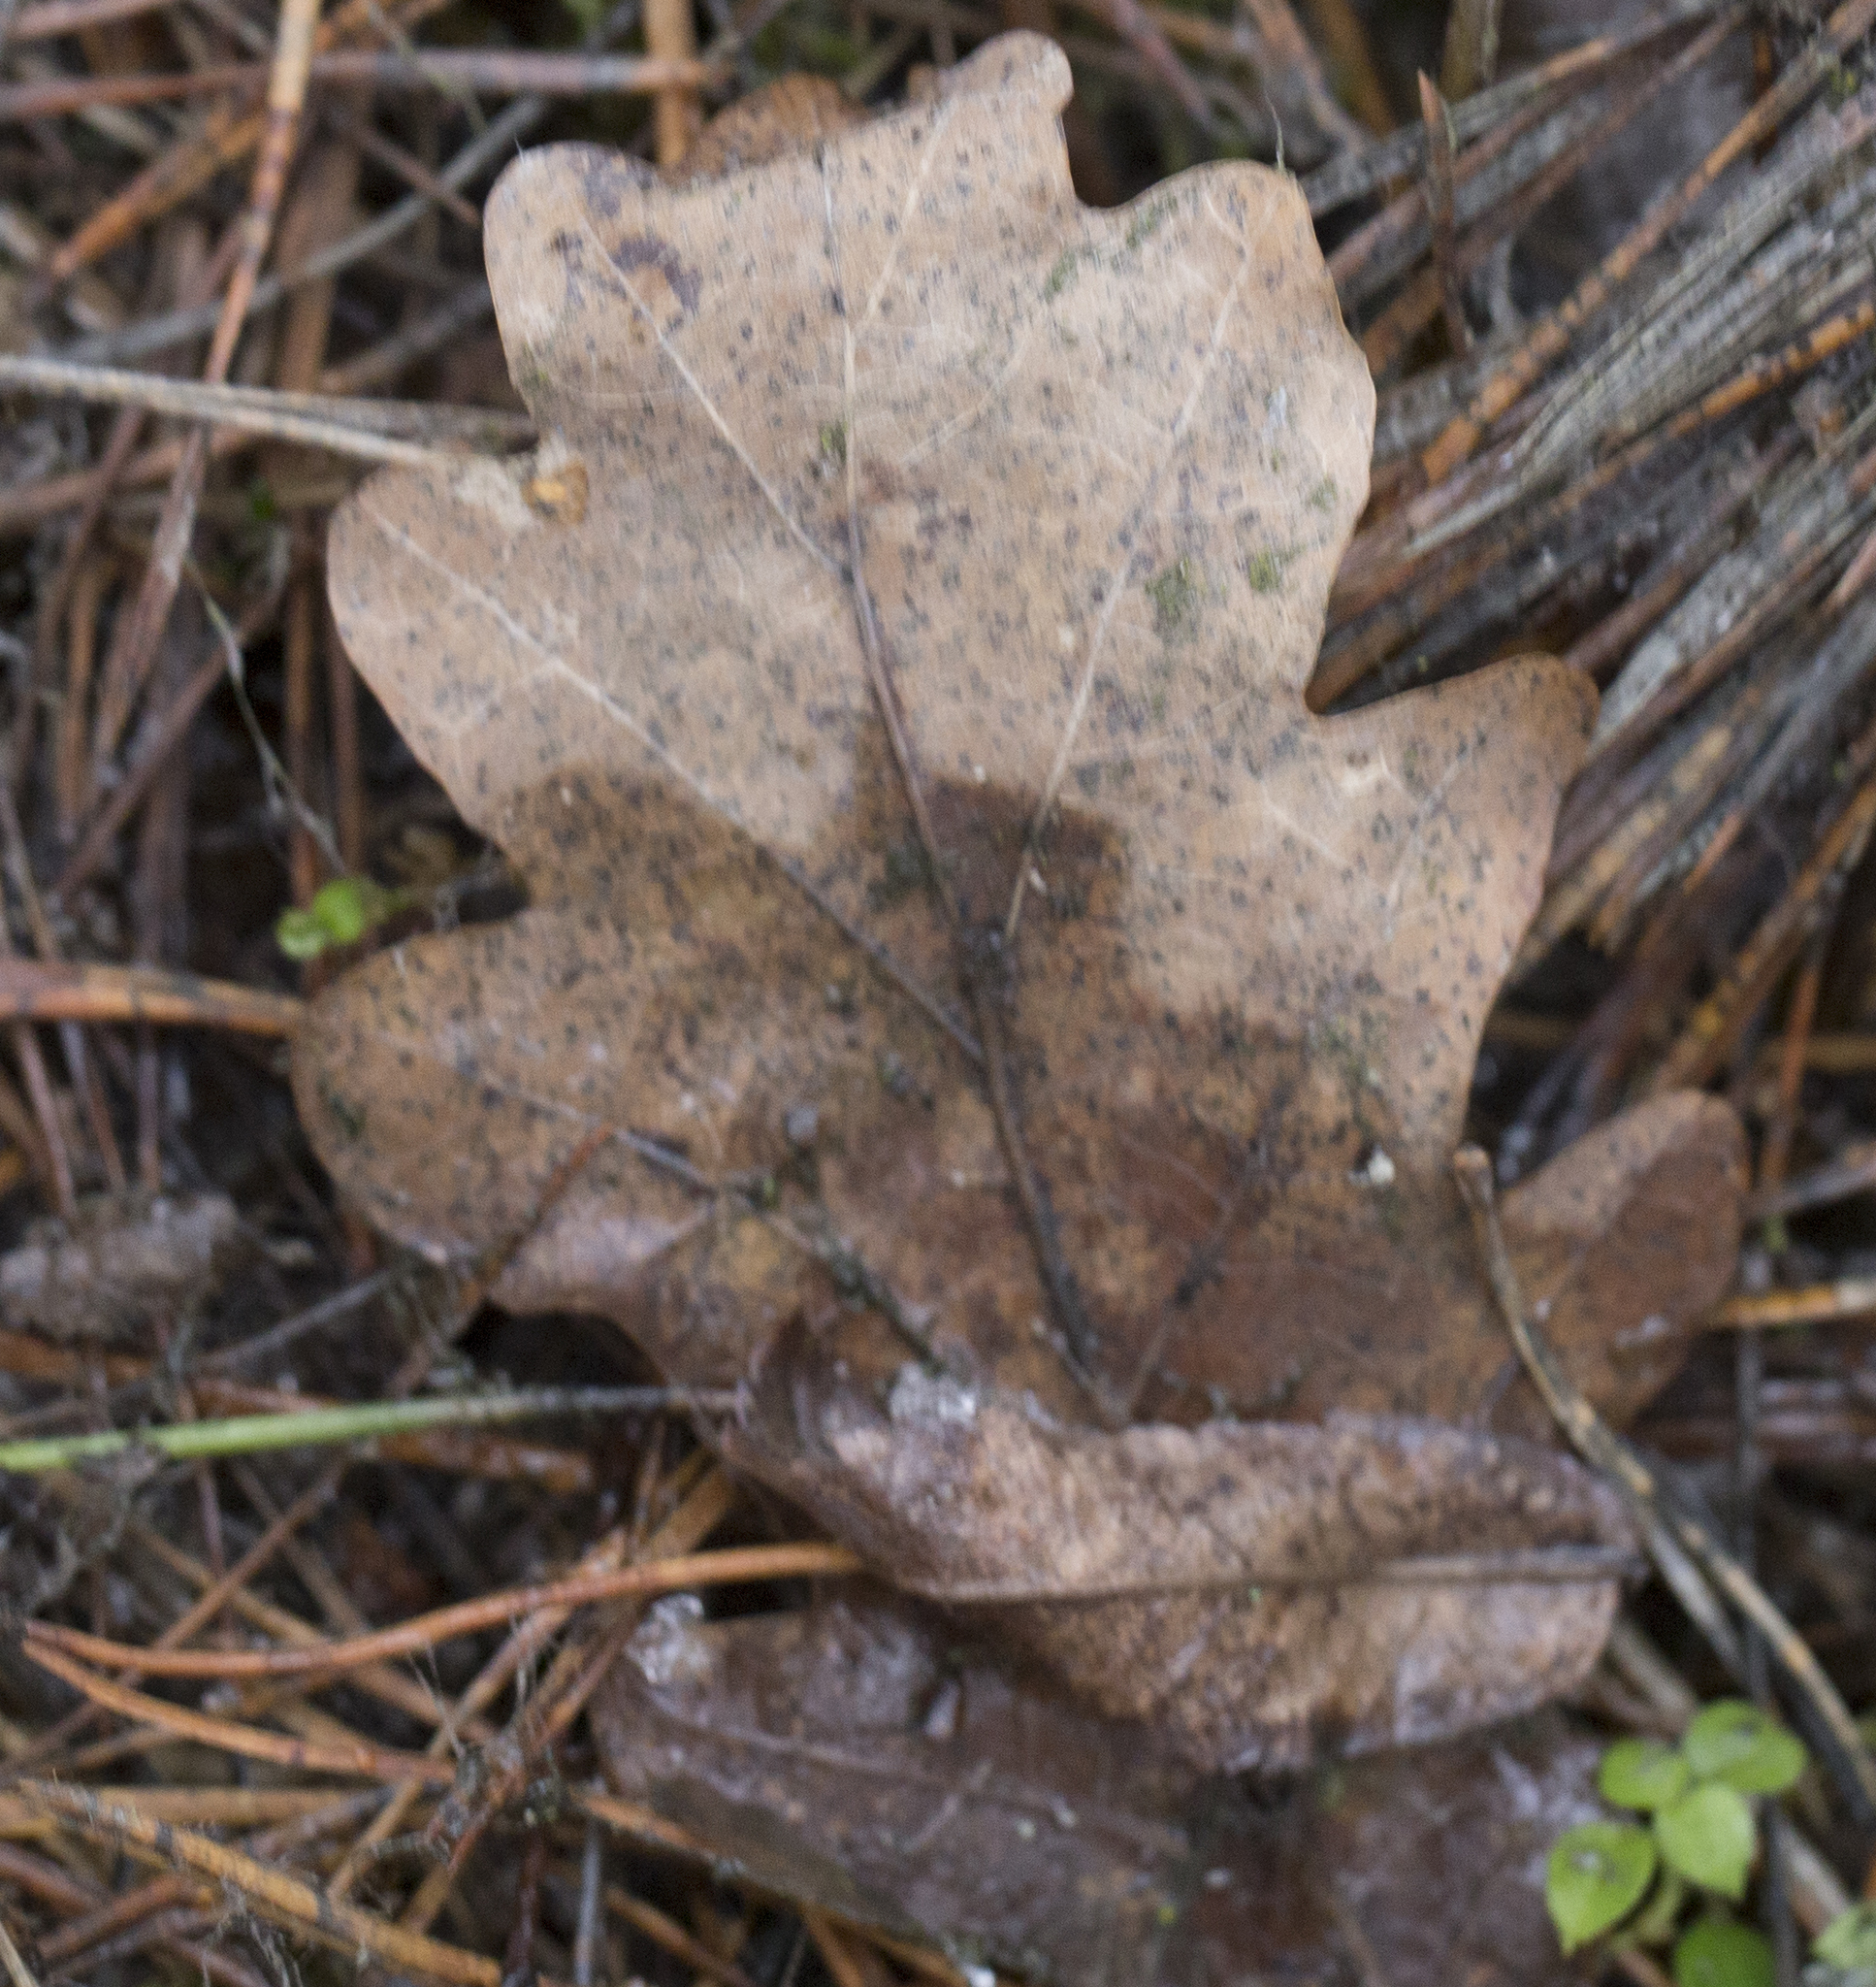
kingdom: Plantae
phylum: Tracheophyta
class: Magnoliopsida
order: Fagales
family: Fagaceae
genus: Quercus
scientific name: Quercus robur
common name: Pedunculate oak
